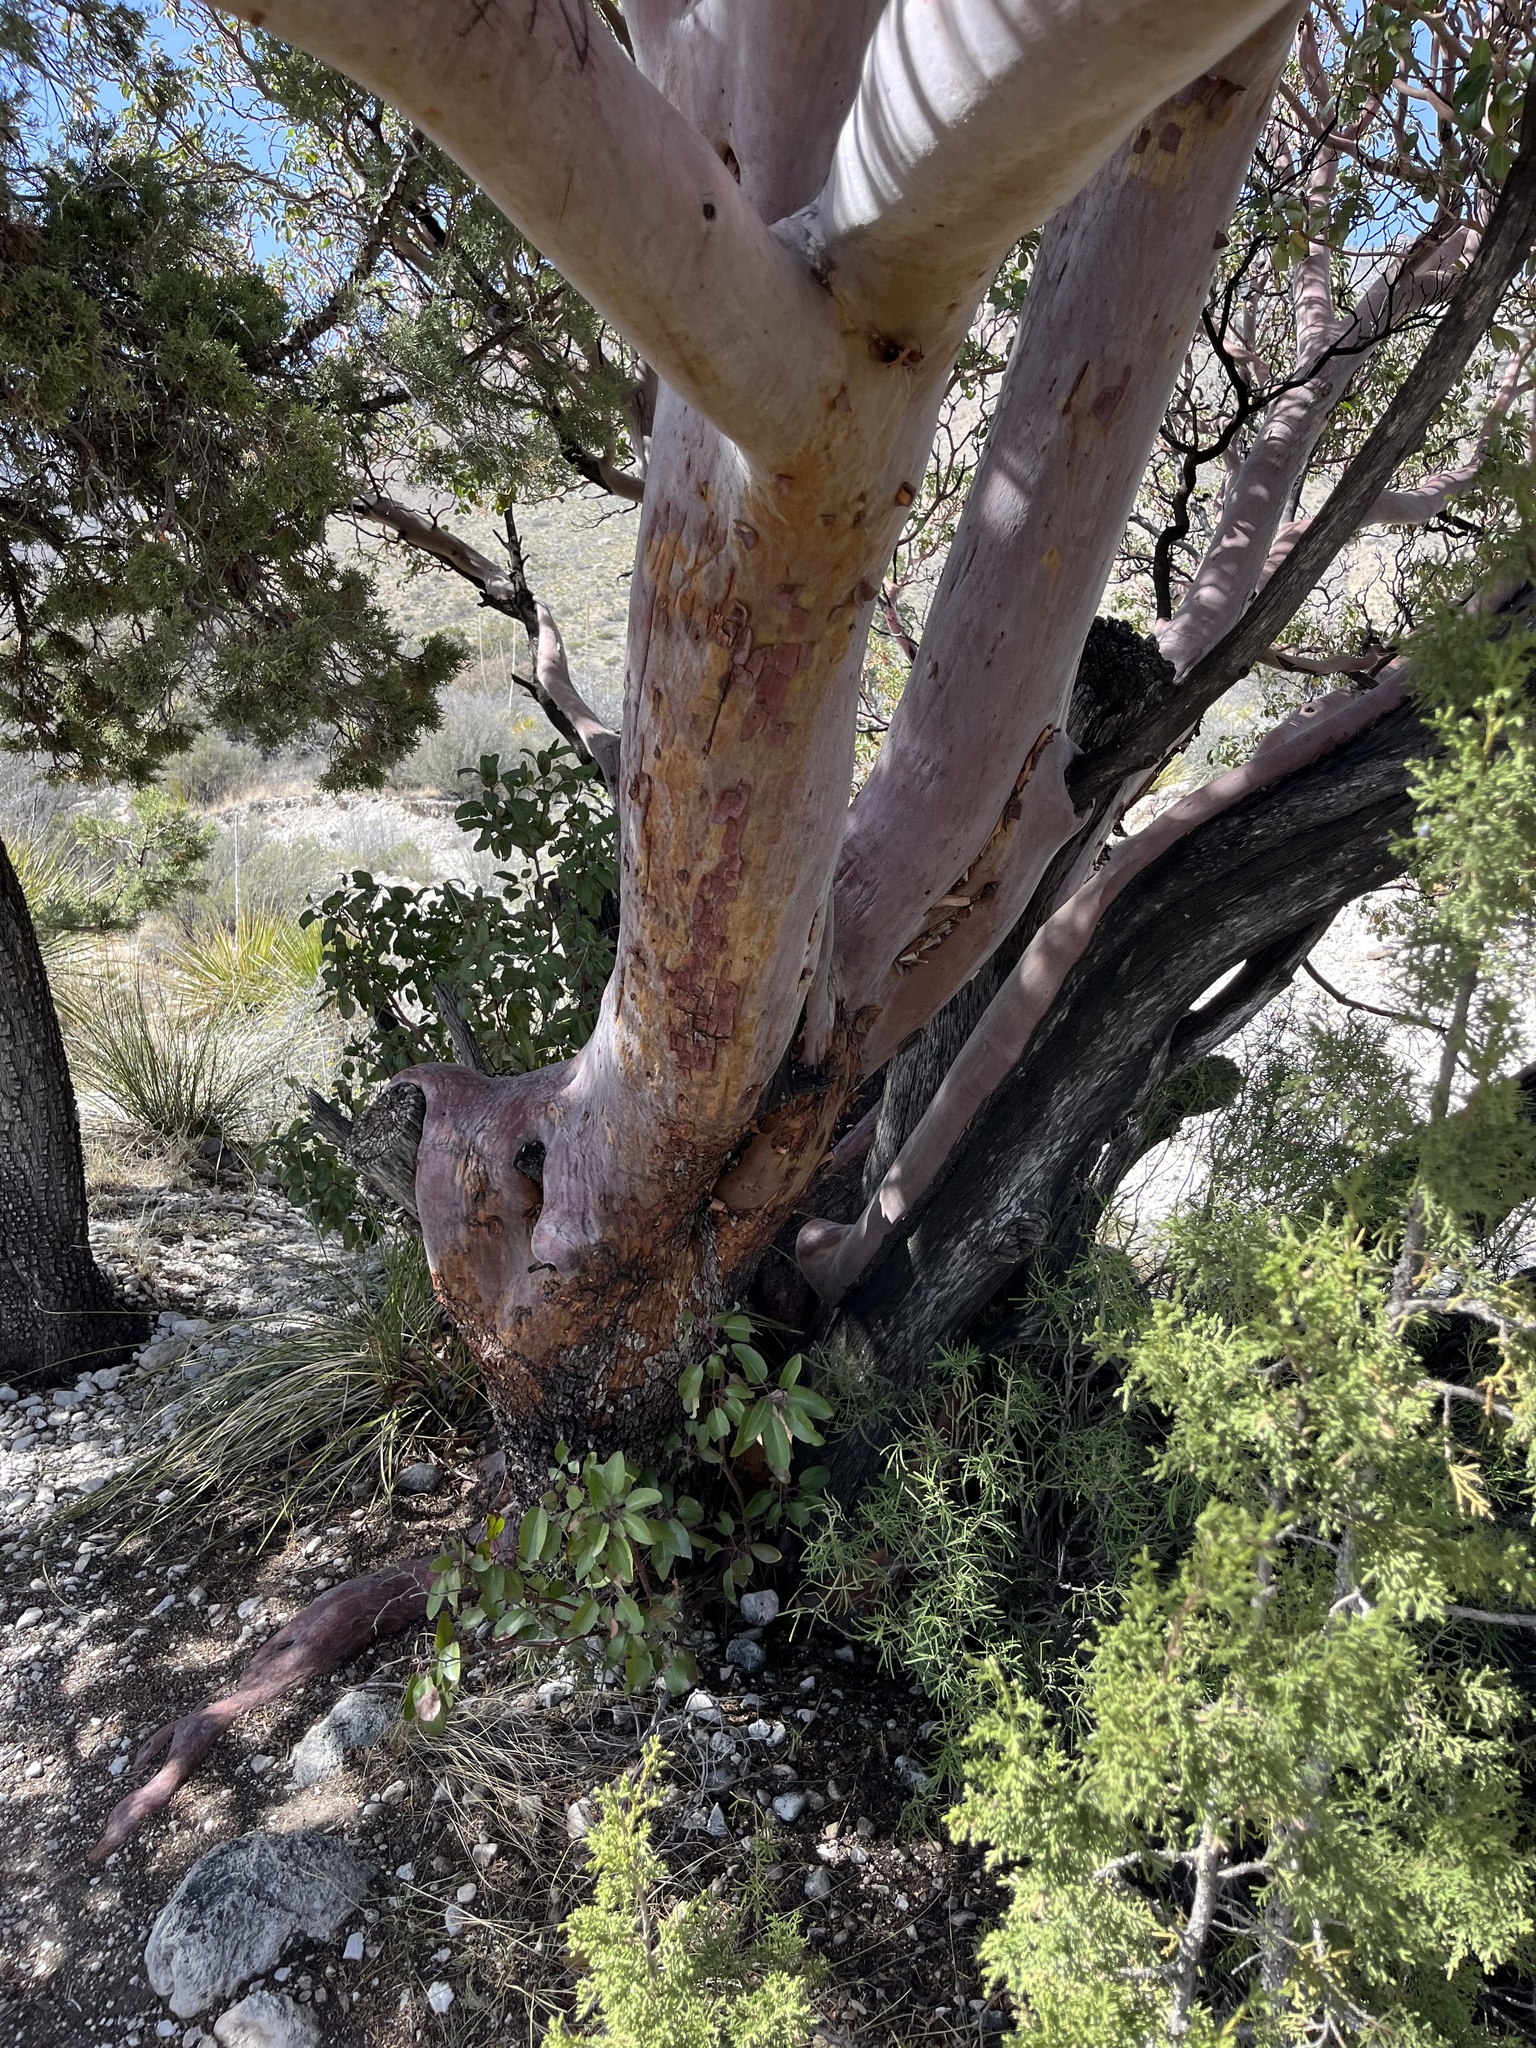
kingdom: Plantae
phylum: Tracheophyta
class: Magnoliopsida
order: Ericales
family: Ericaceae
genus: Arbutus
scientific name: Arbutus xalapensis
